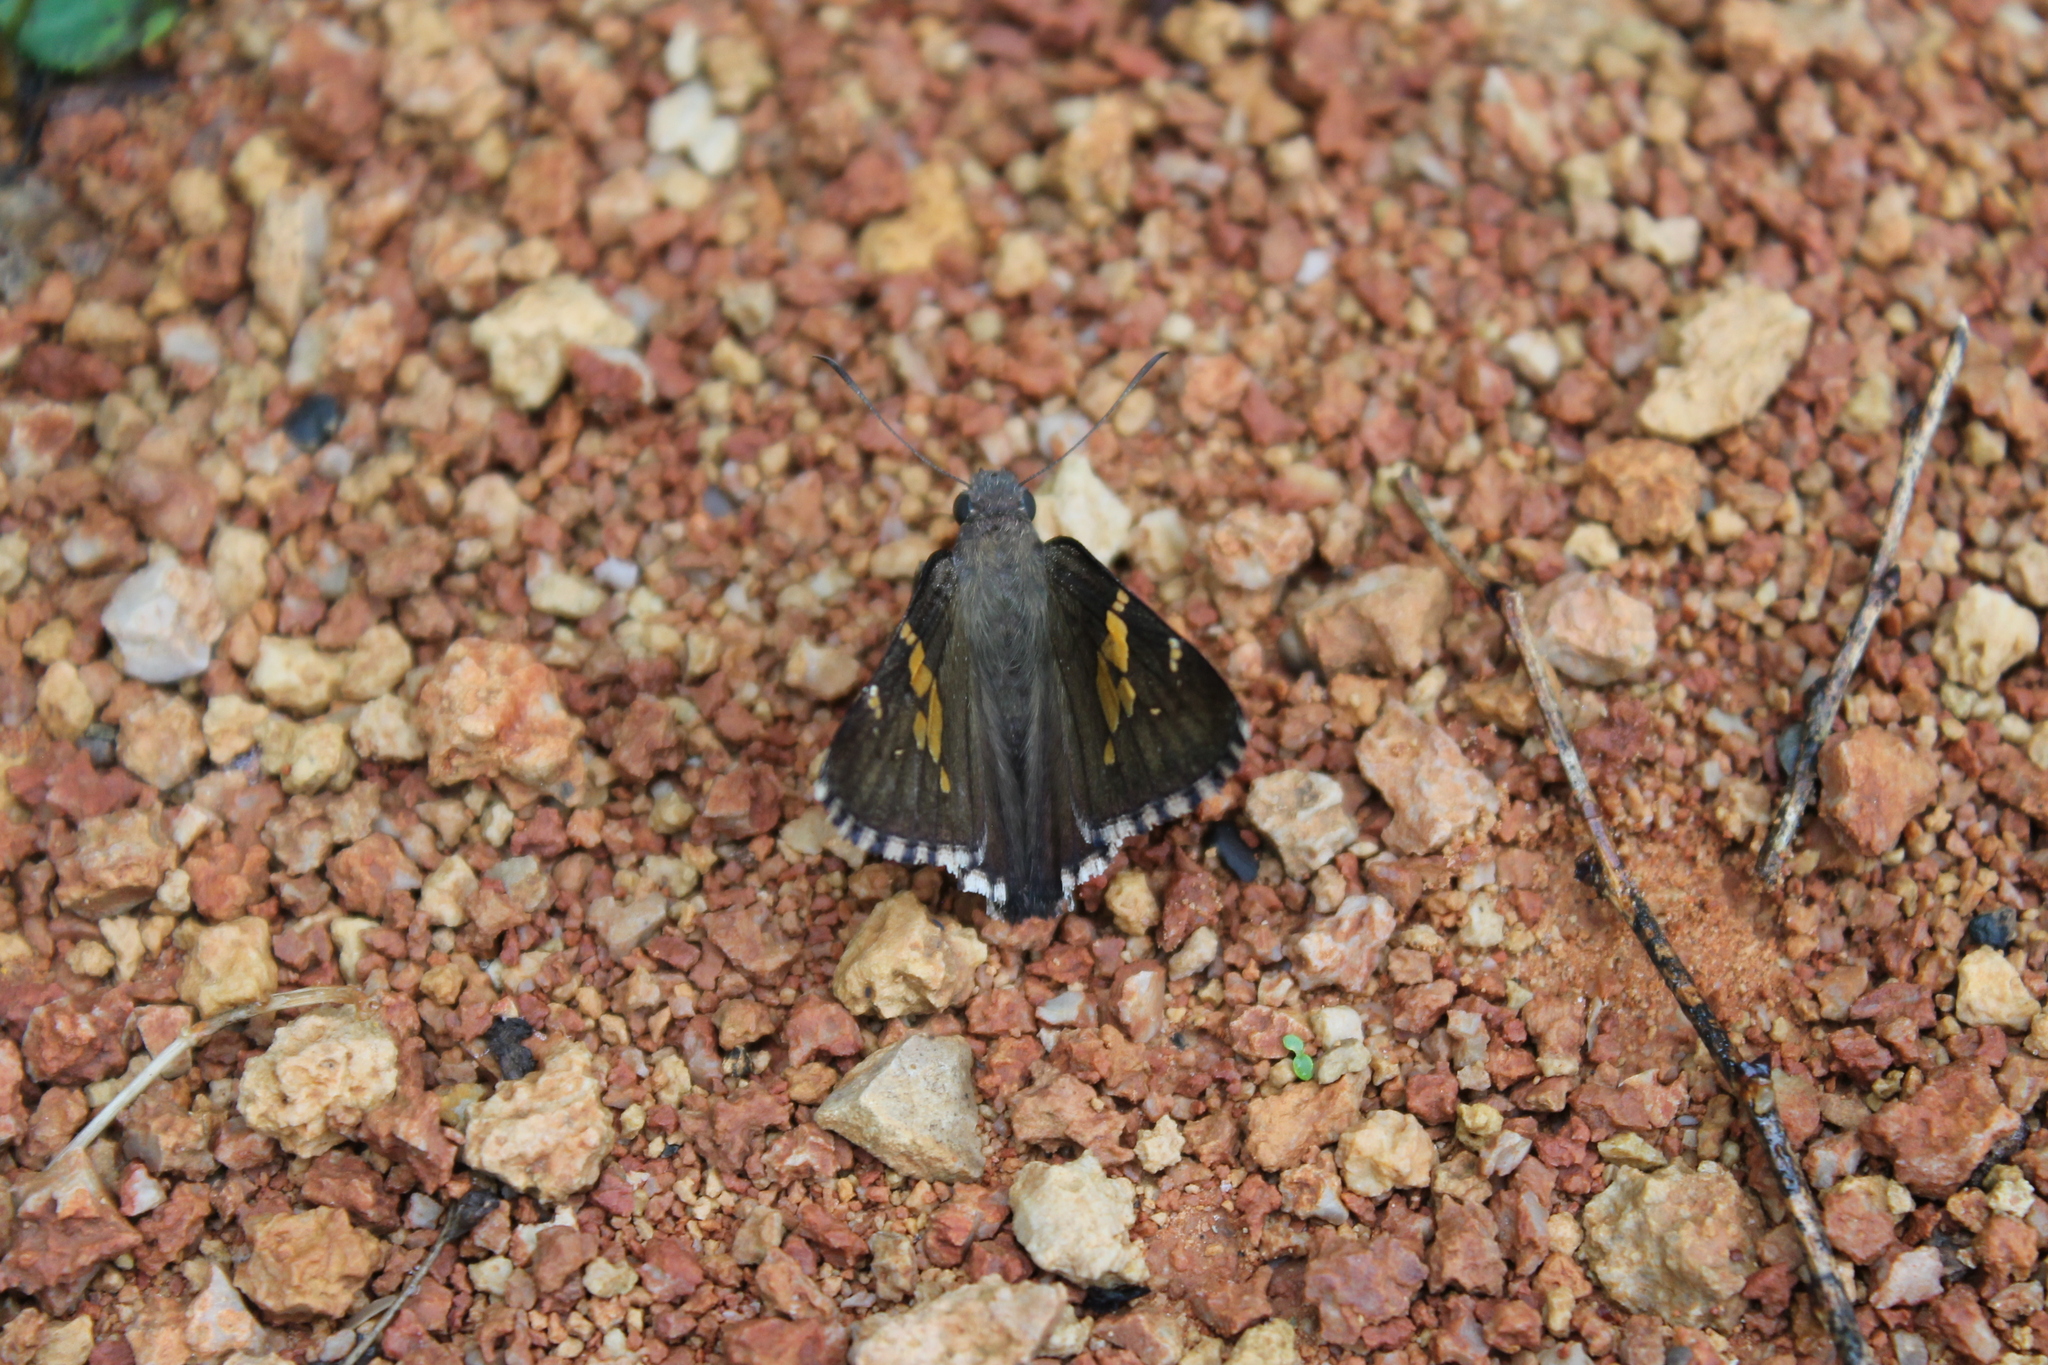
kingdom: Animalia
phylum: Arthropoda
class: Insecta
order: Lepidoptera
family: Hesperiidae
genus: Thorybes
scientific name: Thorybes lyciades
